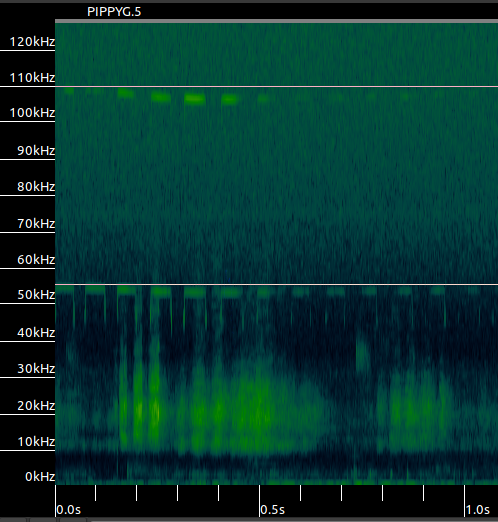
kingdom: Animalia
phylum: Chordata
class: Mammalia
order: Chiroptera
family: Rhinolophidae
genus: Rhinolophus
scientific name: Rhinolophus hipposideros
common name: Lesser horseshoe bat
